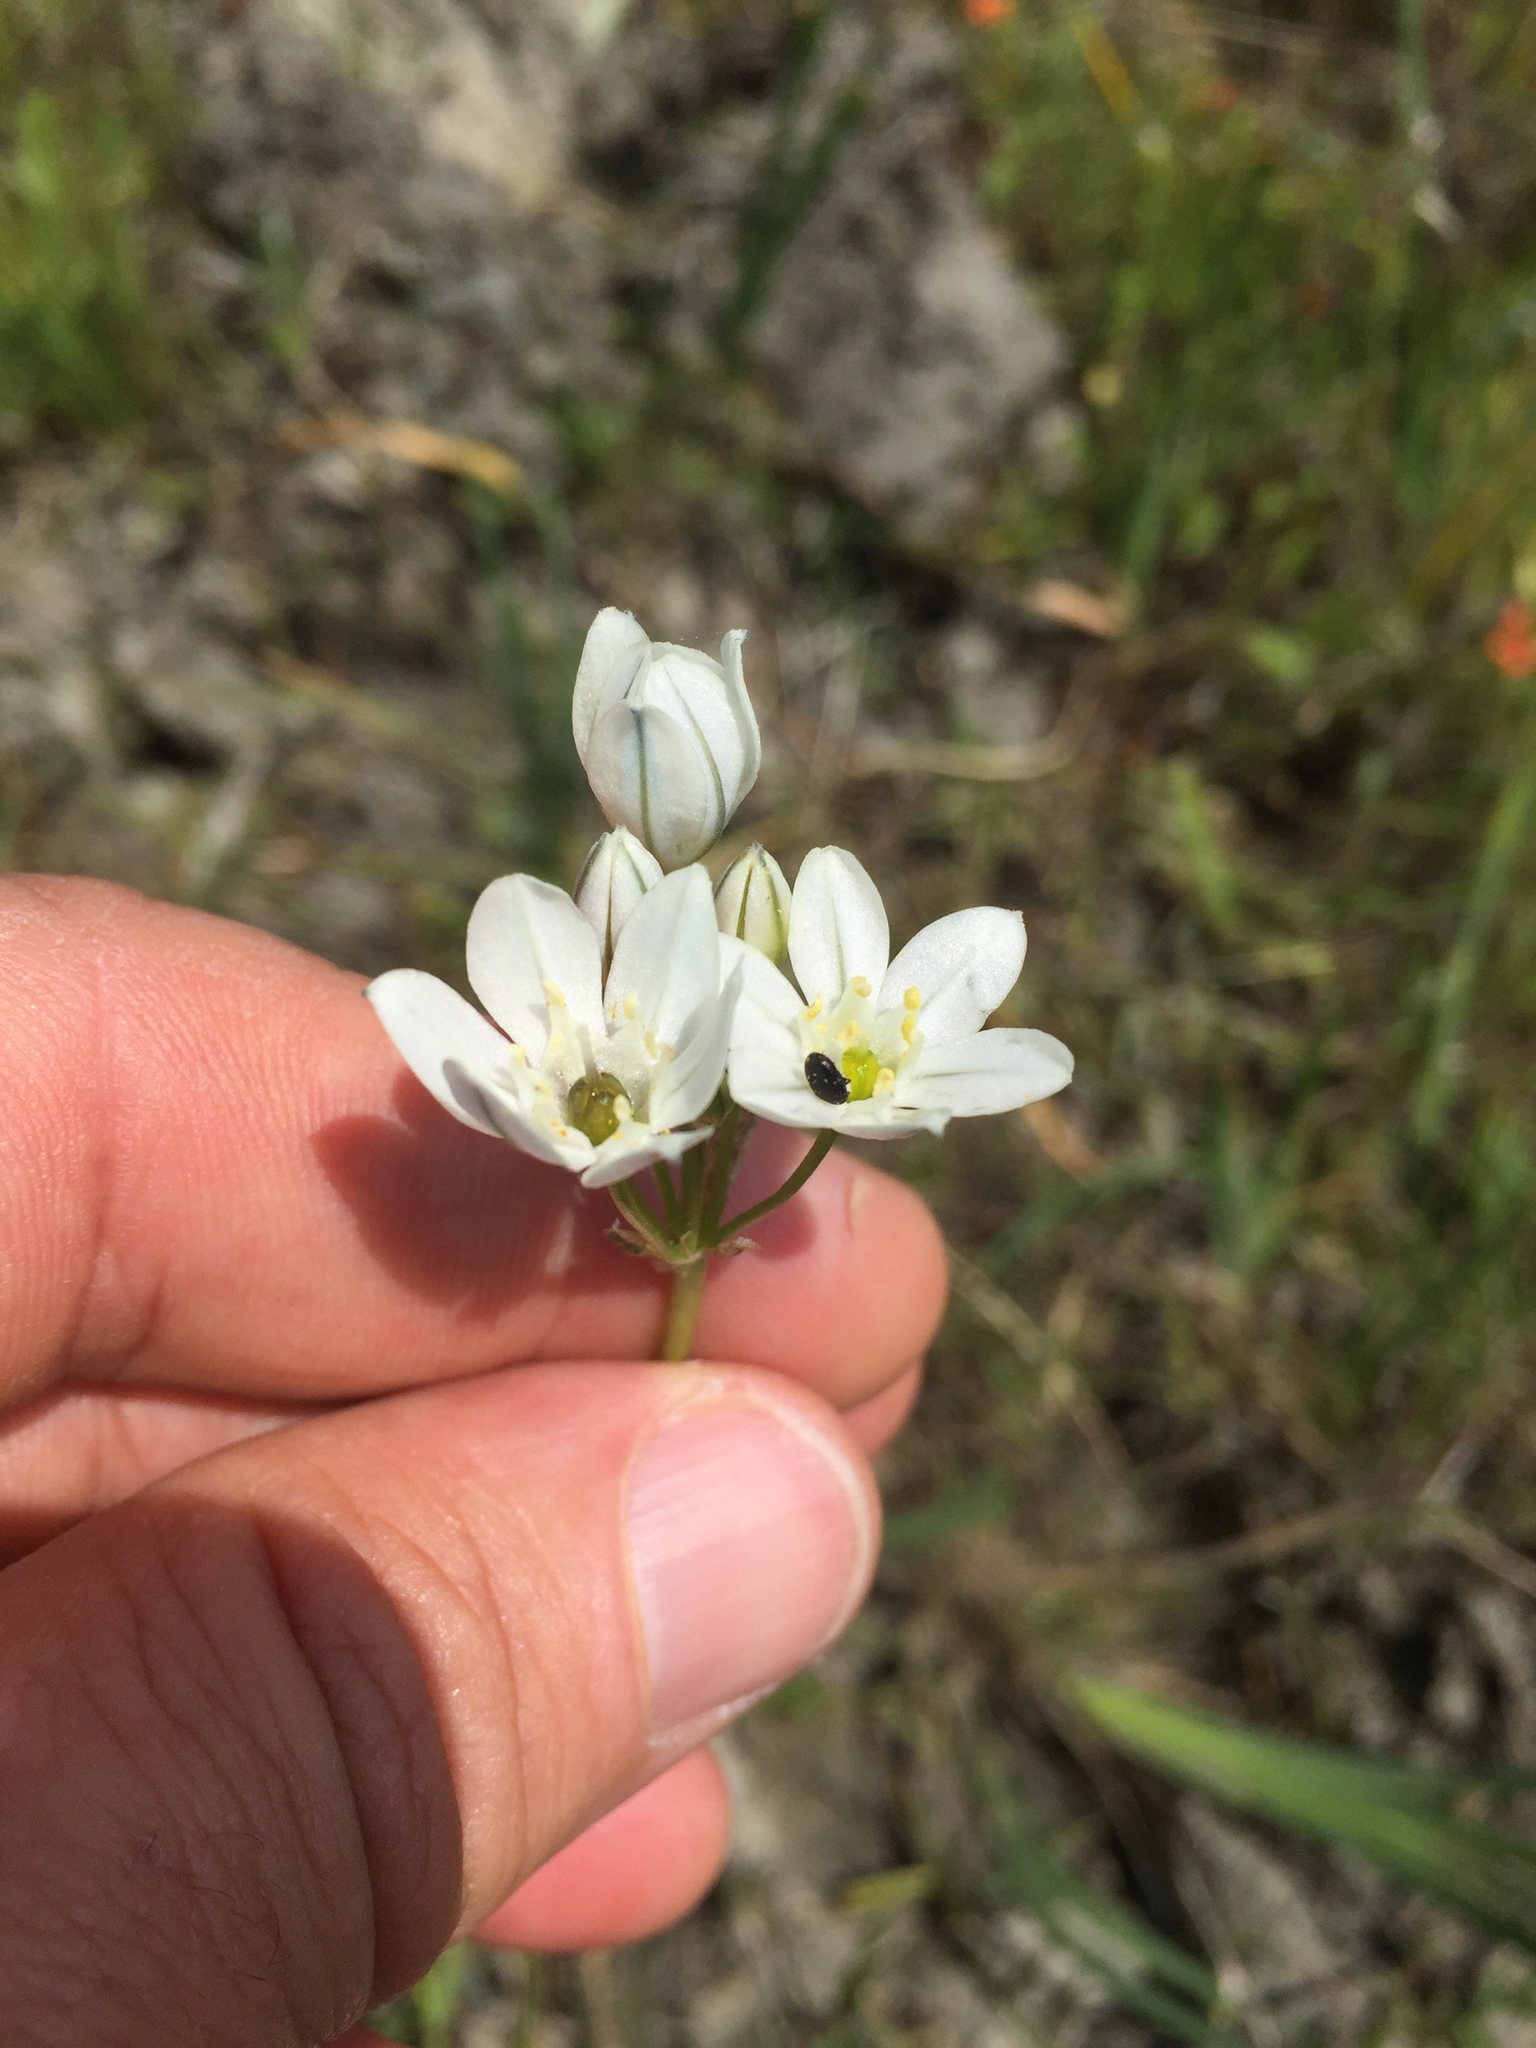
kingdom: Plantae
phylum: Tracheophyta
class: Liliopsida
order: Asparagales
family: Asparagaceae
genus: Triteleia
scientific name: Triteleia hyacinthina
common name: White brodiaea
